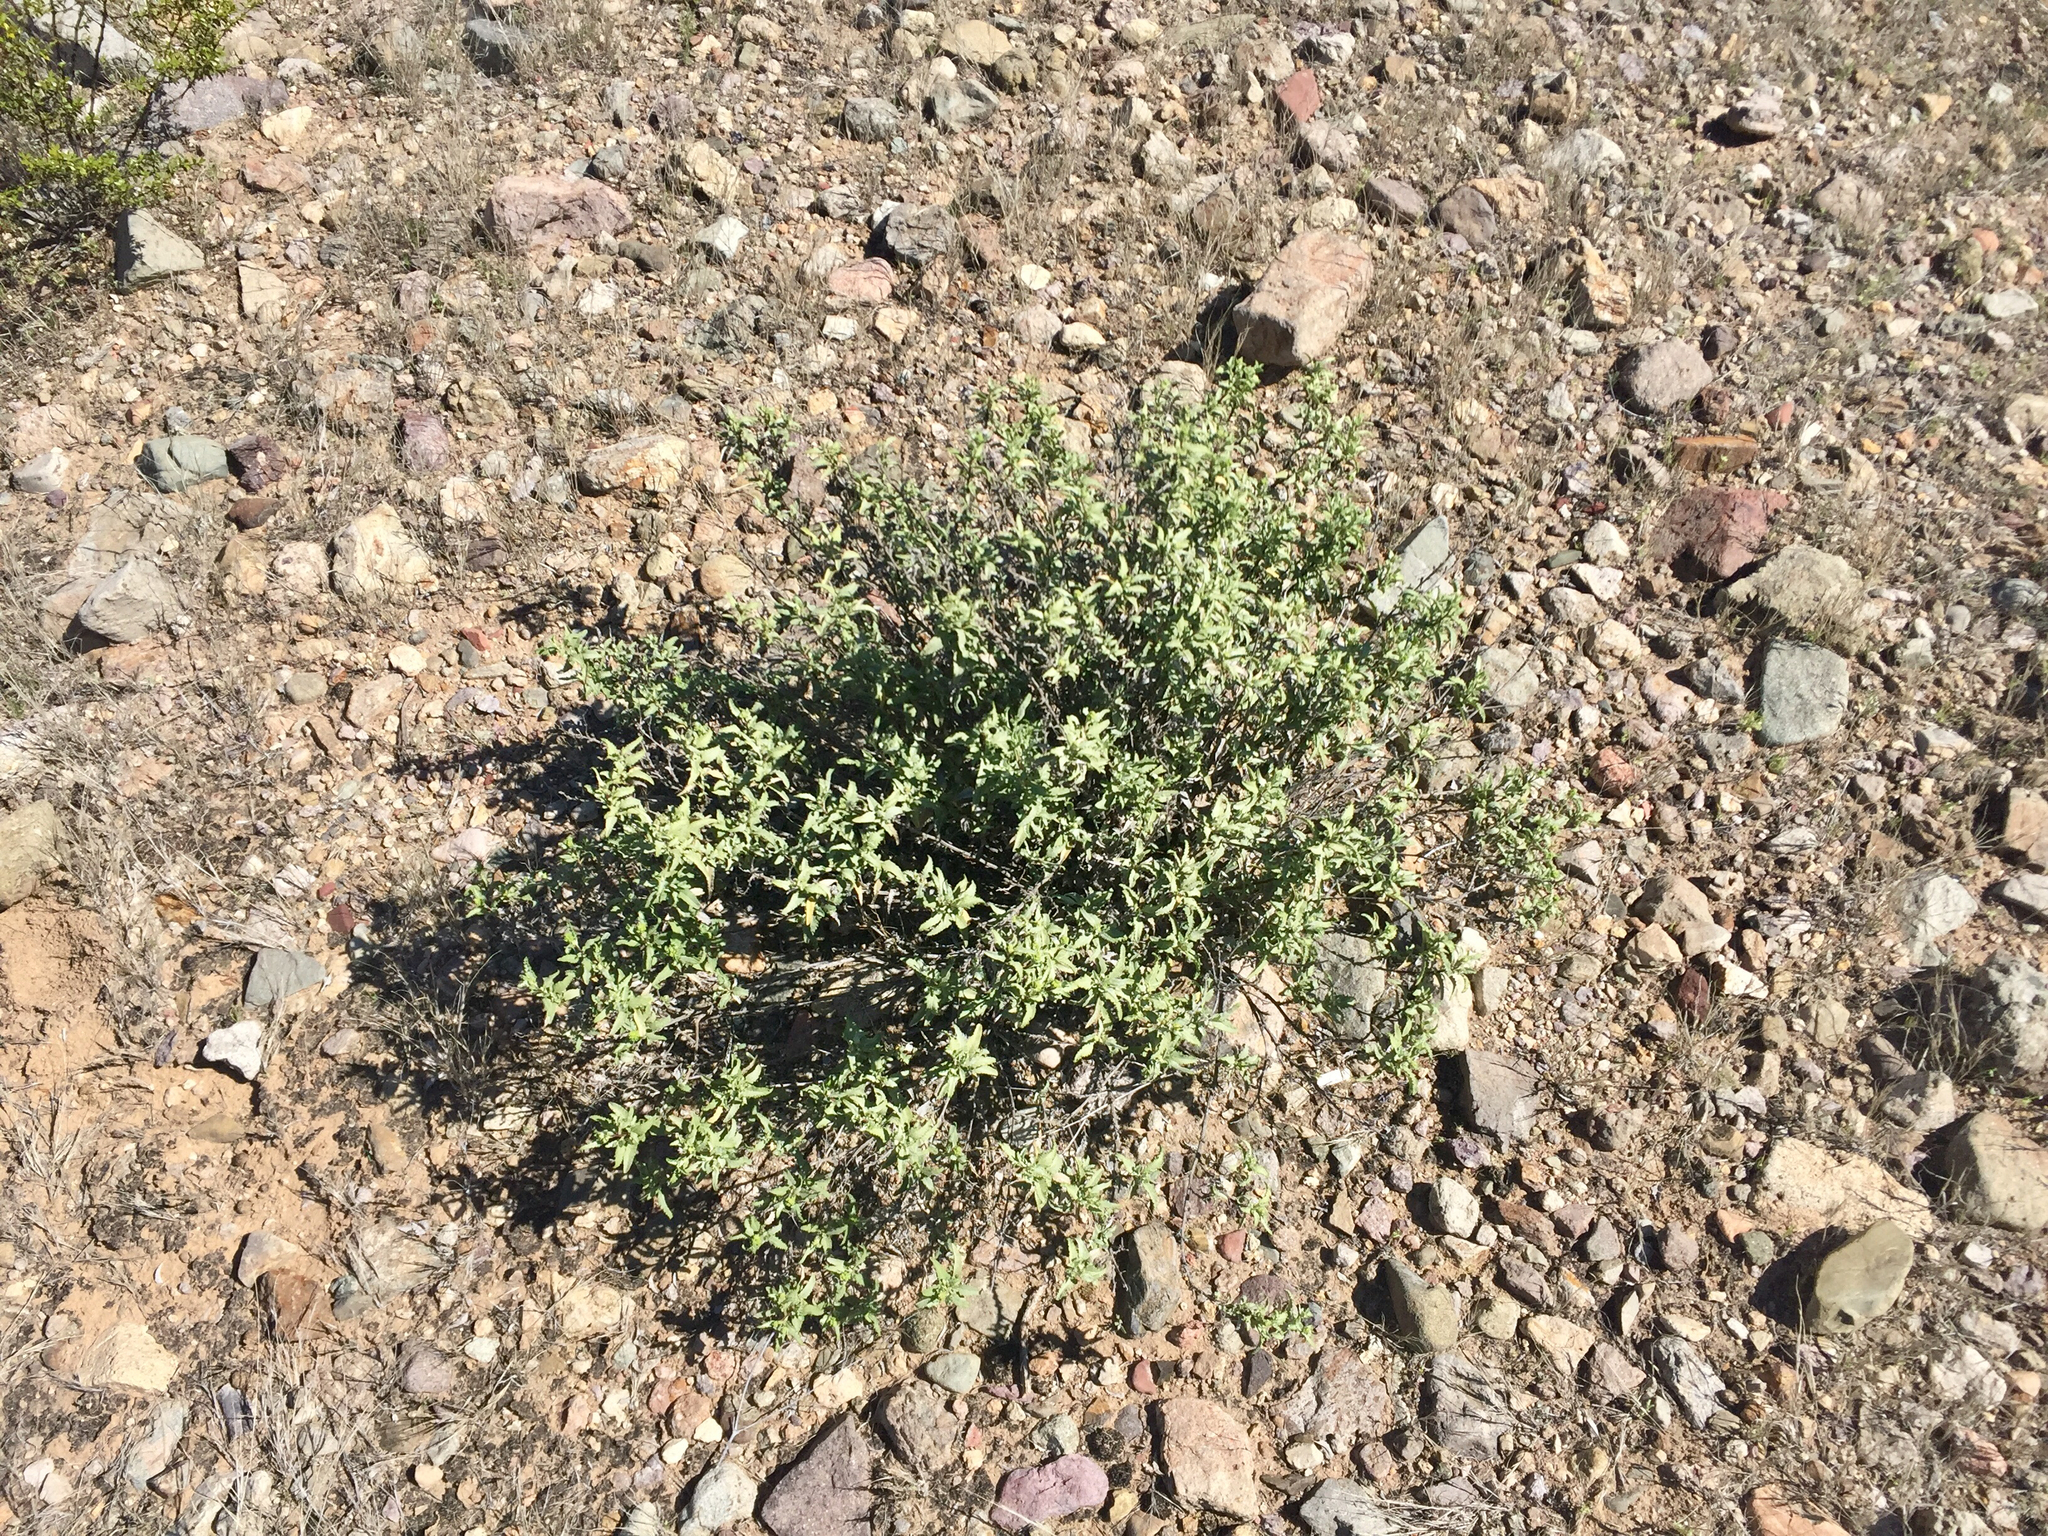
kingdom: Plantae
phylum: Tracheophyta
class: Magnoliopsida
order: Asterales
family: Asteraceae
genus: Ambrosia
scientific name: Ambrosia deltoidea
